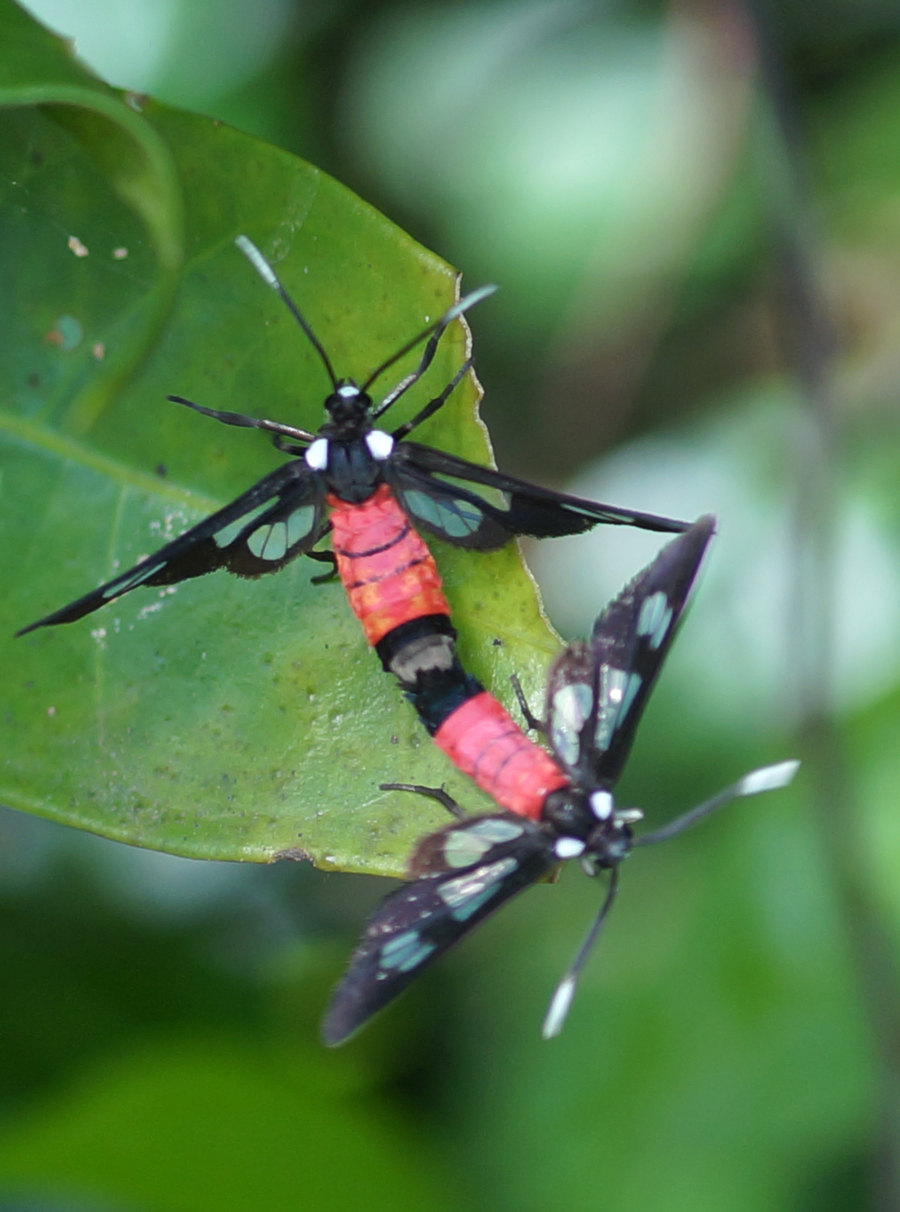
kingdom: Animalia
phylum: Arthropoda
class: Insecta
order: Lepidoptera
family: Erebidae
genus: Amata
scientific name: Amata leopoldi
